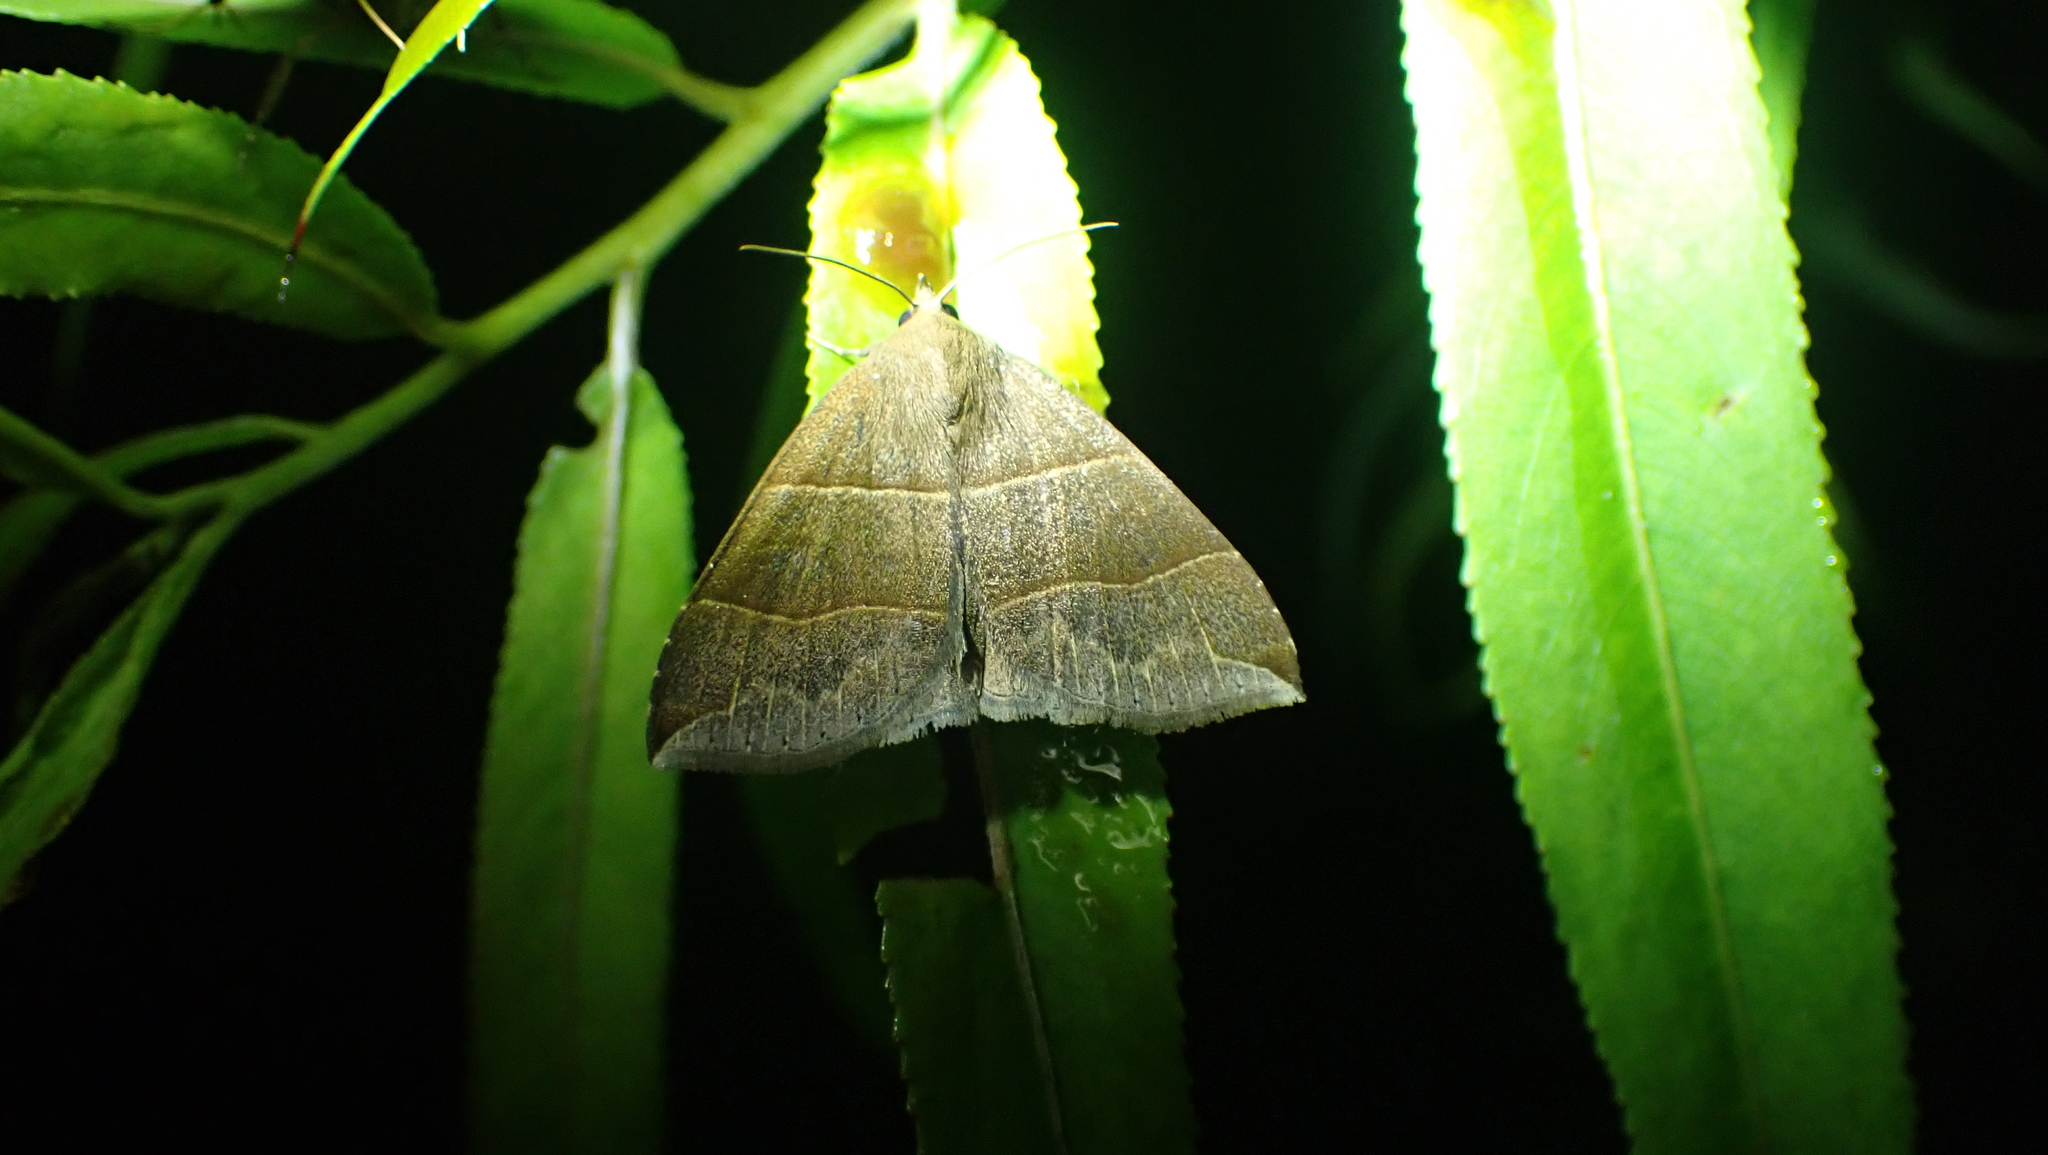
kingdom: Animalia
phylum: Arthropoda
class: Insecta
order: Lepidoptera
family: Erebidae
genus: Parallelia
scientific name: Parallelia bistriaris
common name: Maple looper moth
